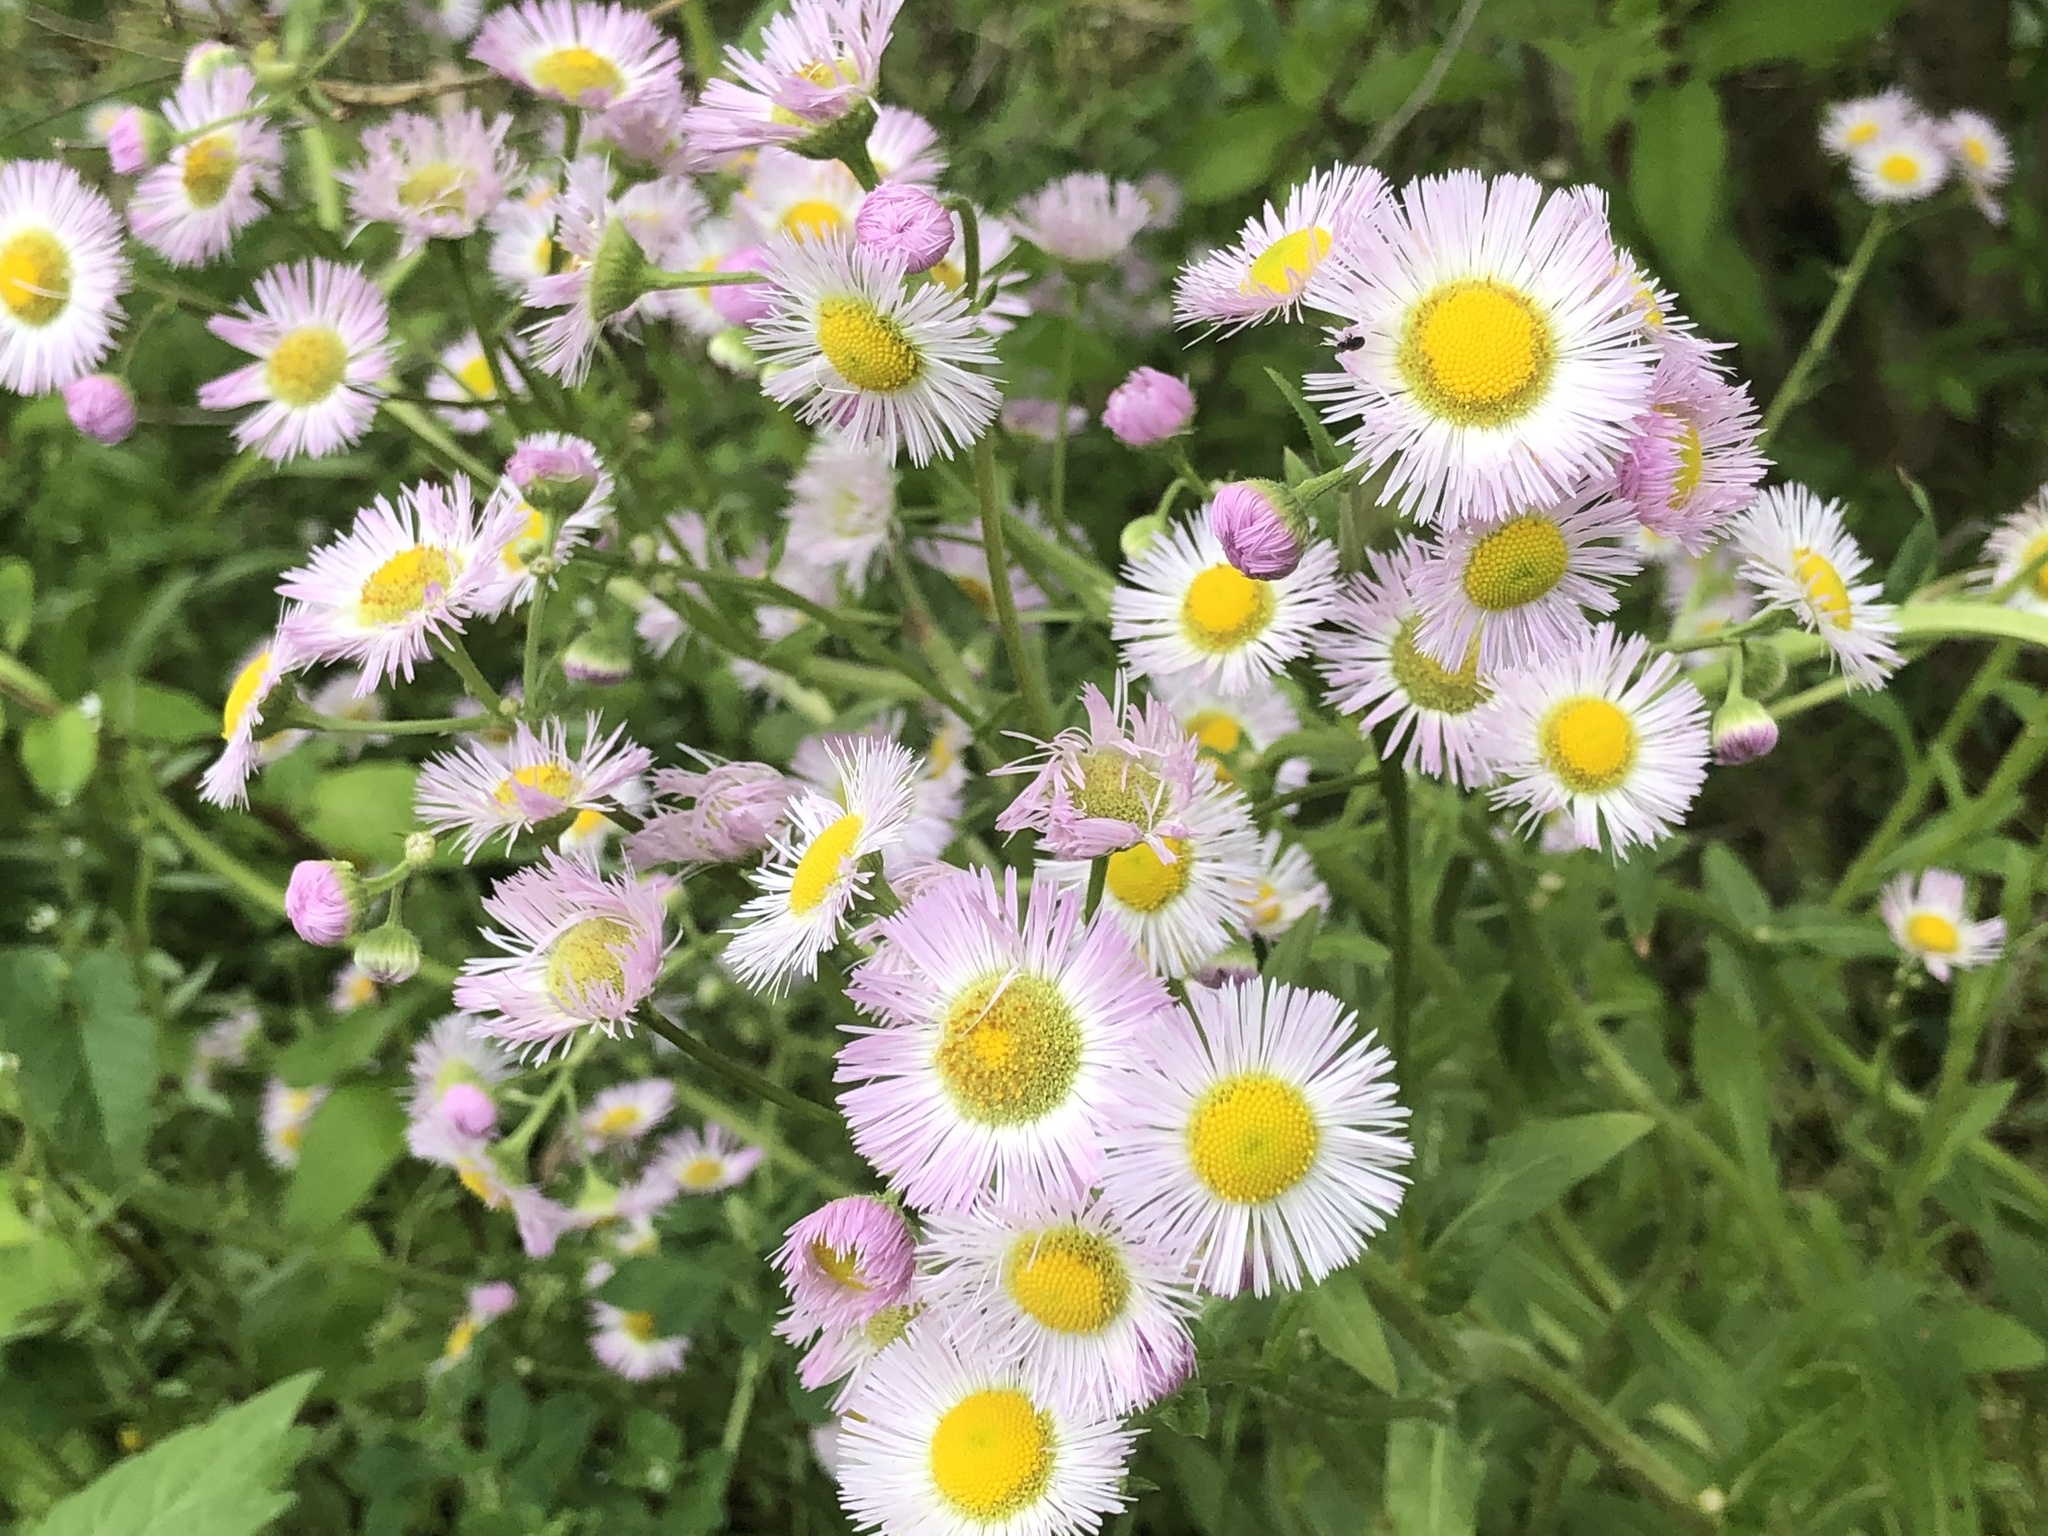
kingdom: Plantae
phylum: Tracheophyta
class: Magnoliopsida
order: Asterales
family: Asteraceae
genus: Erigeron
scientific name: Erigeron philadelphicus
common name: Robin's-plantain
